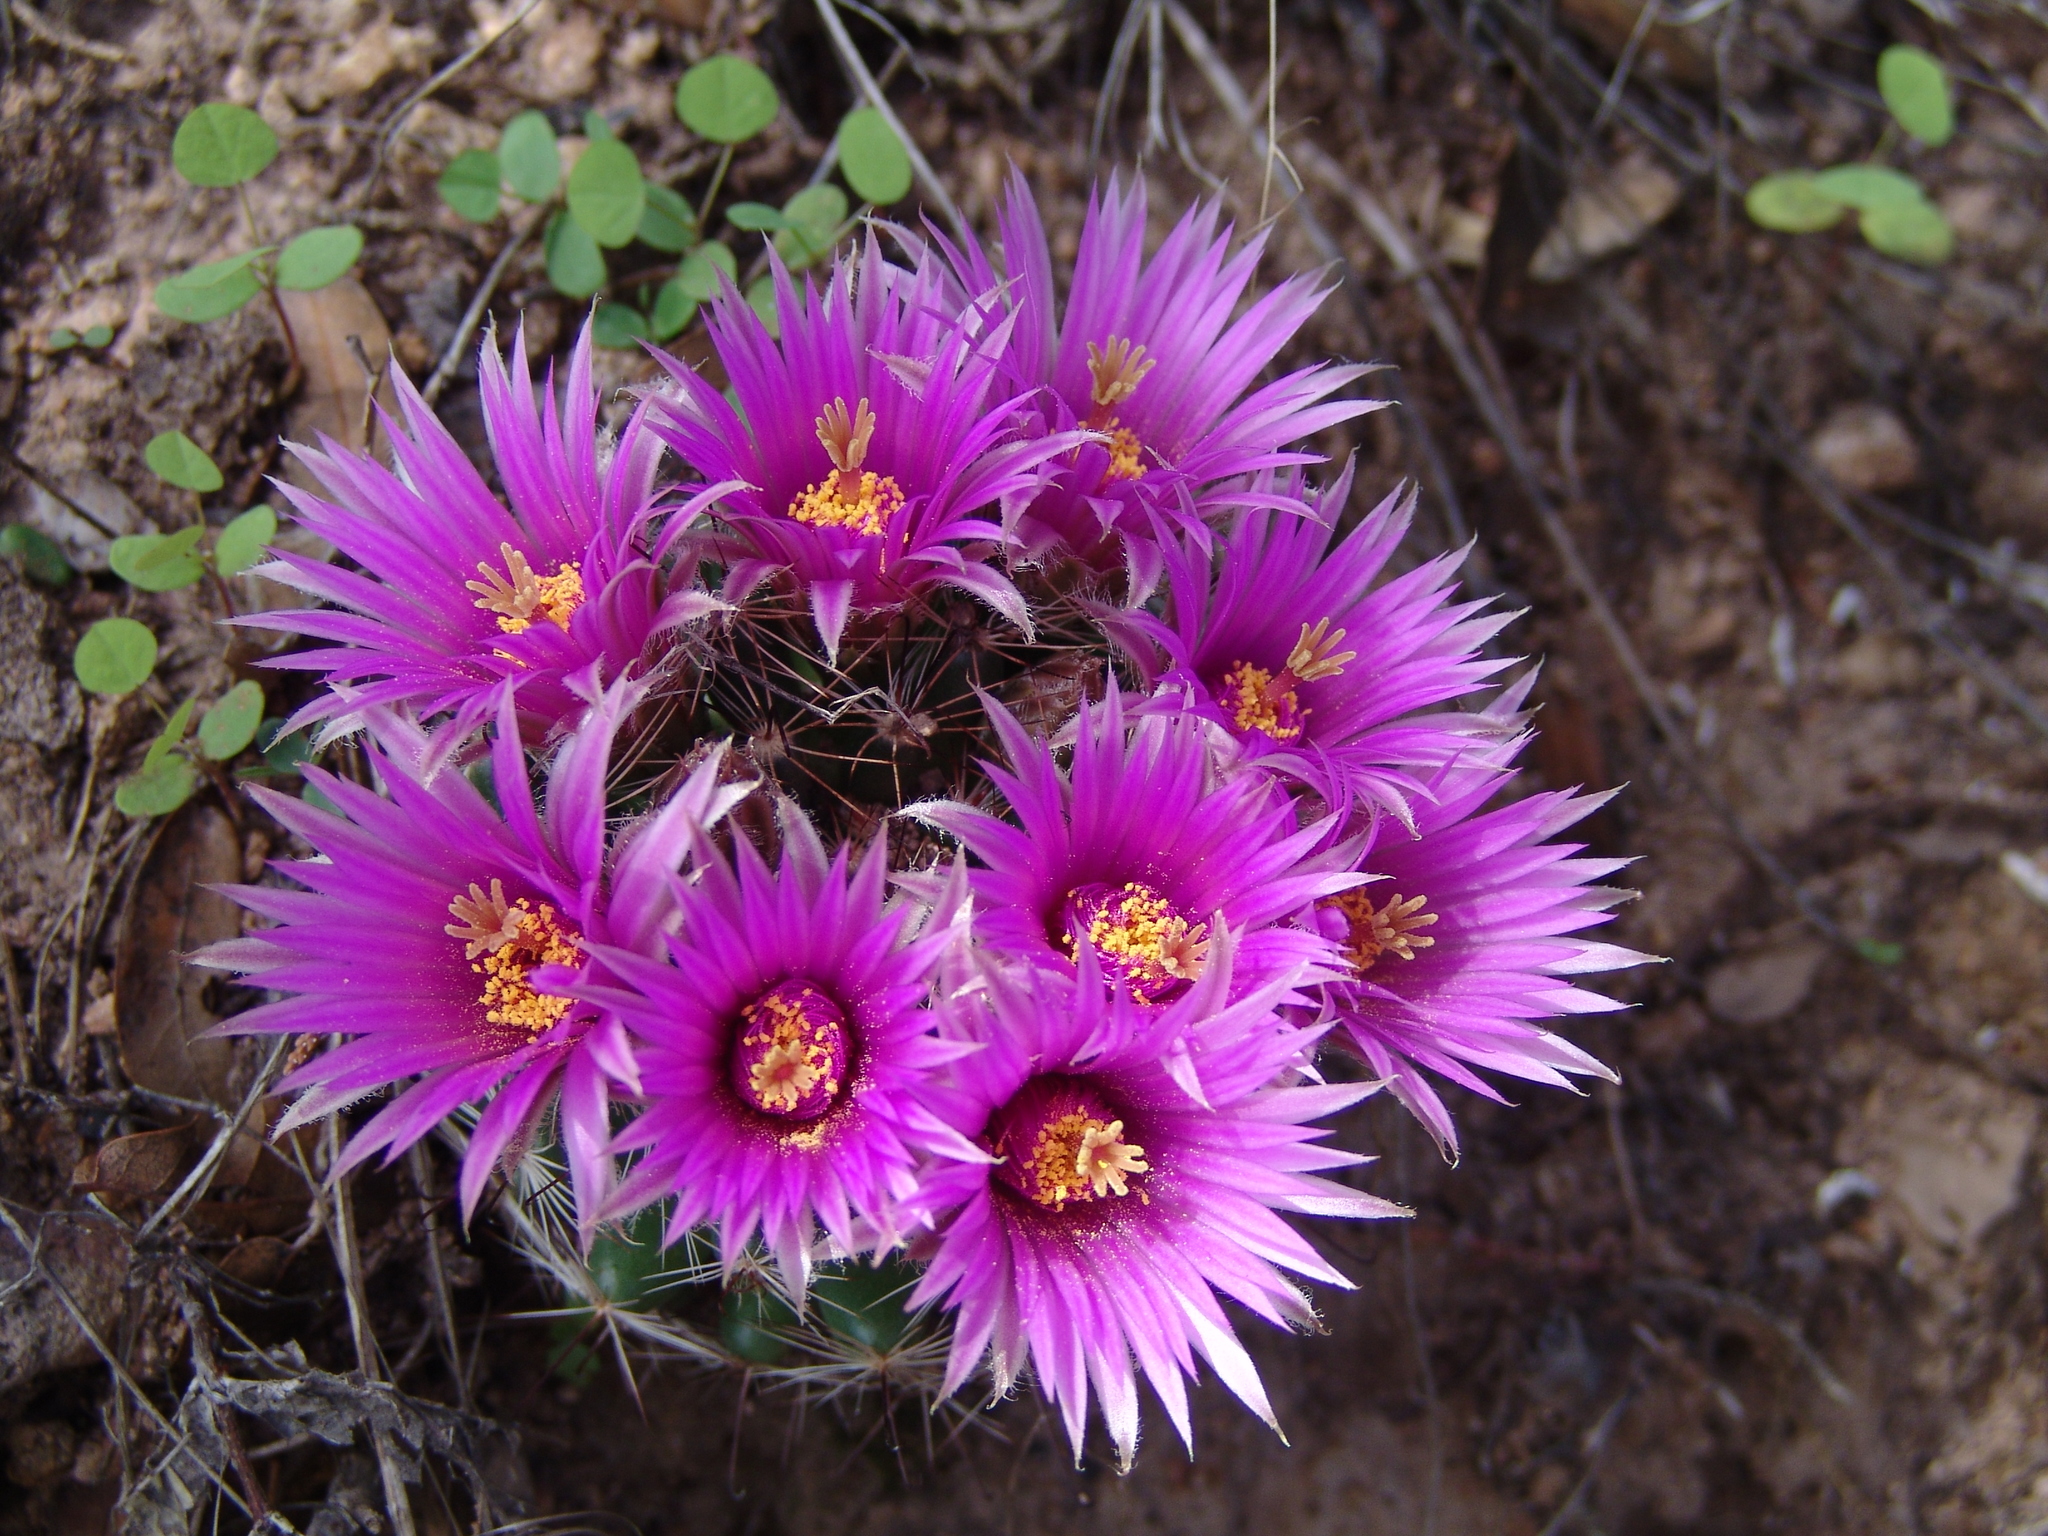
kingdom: Plantae
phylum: Tracheophyta
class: Magnoliopsida
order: Caryophyllales
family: Cactaceae
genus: Cochemiea
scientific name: Cochemiea wrightii
